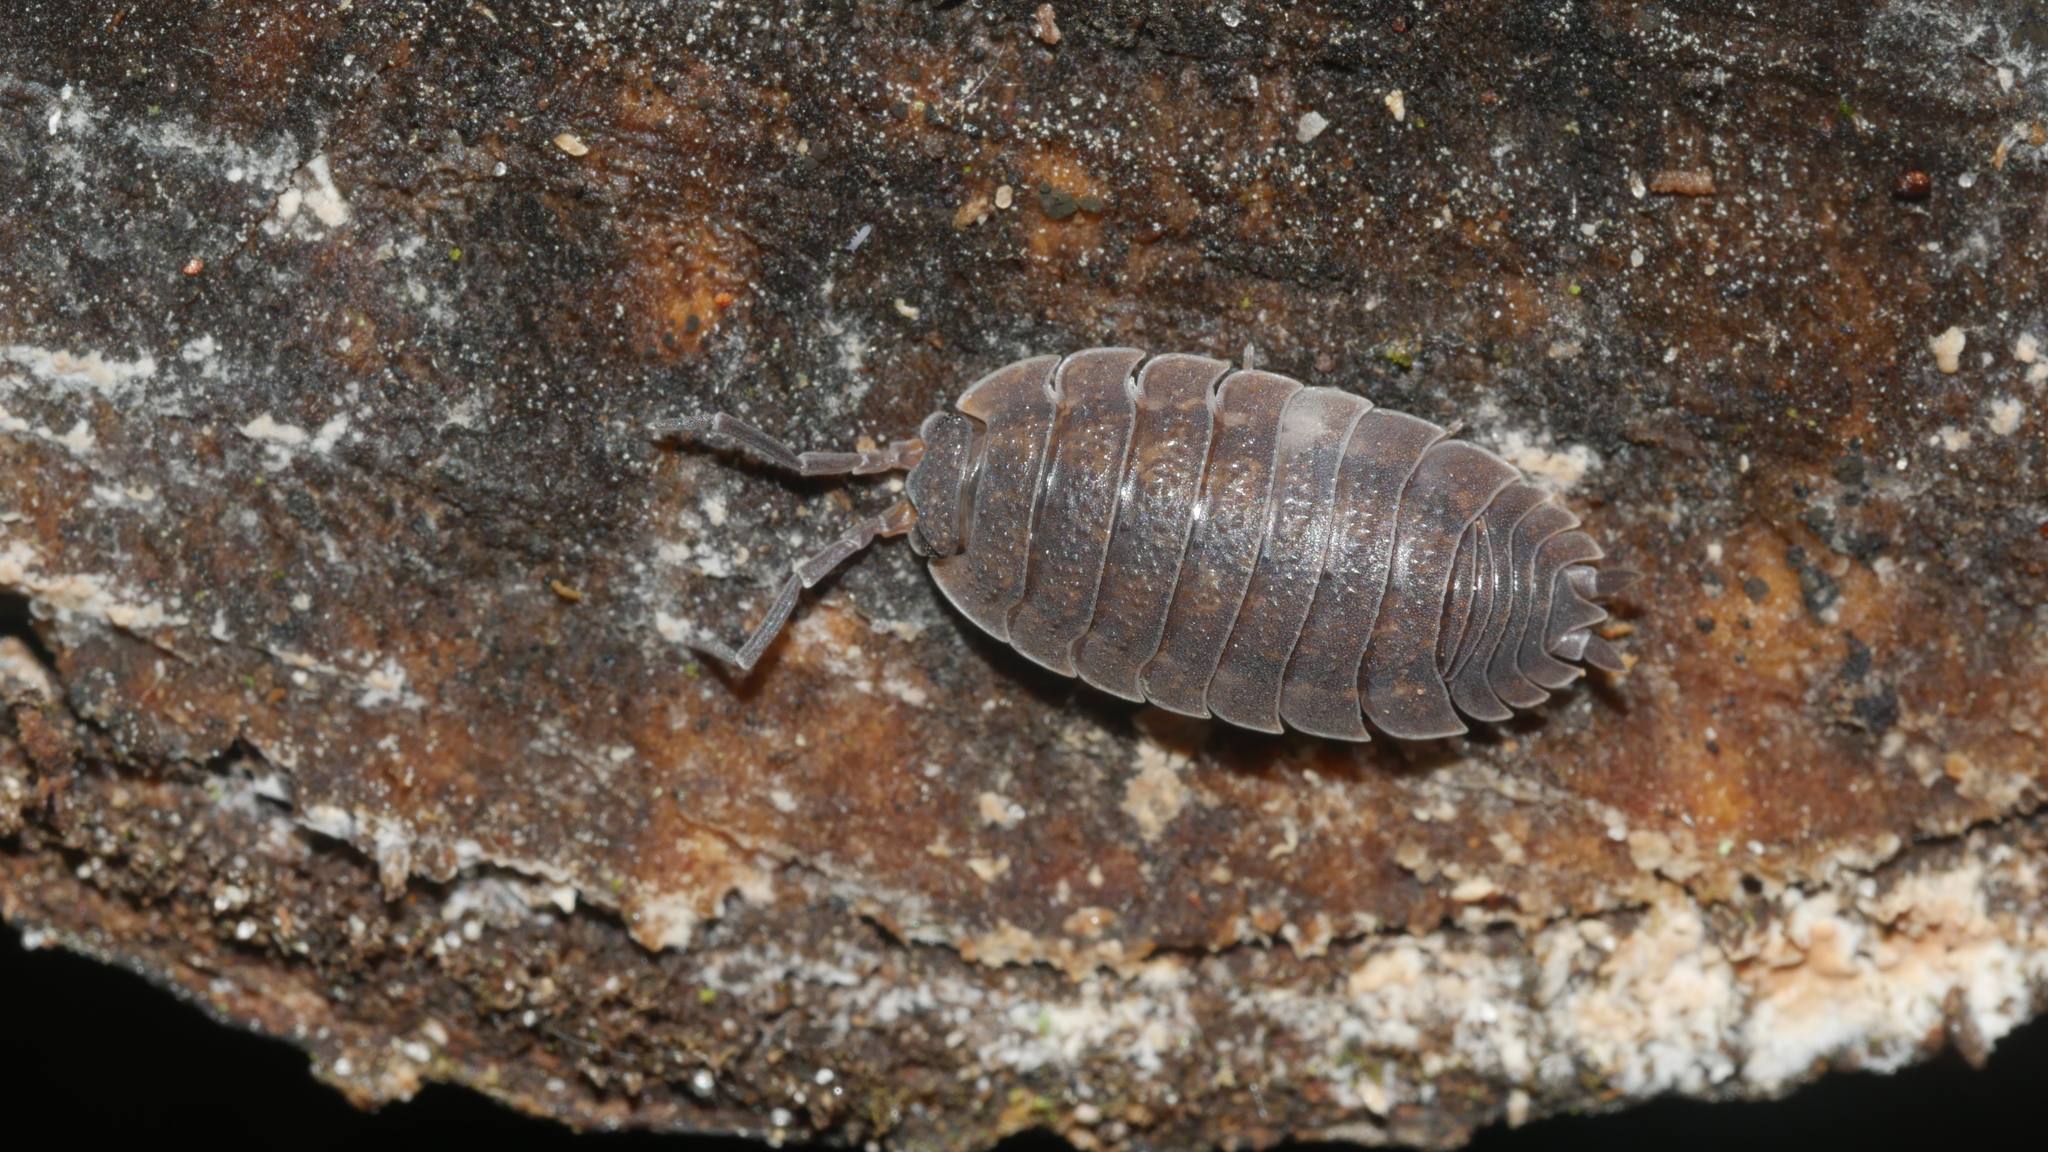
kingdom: Animalia
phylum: Arthropoda
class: Malacostraca
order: Isopoda
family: Porcellionidae
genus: Porcellio
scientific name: Porcellio scaber
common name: Common rough woodlouse
